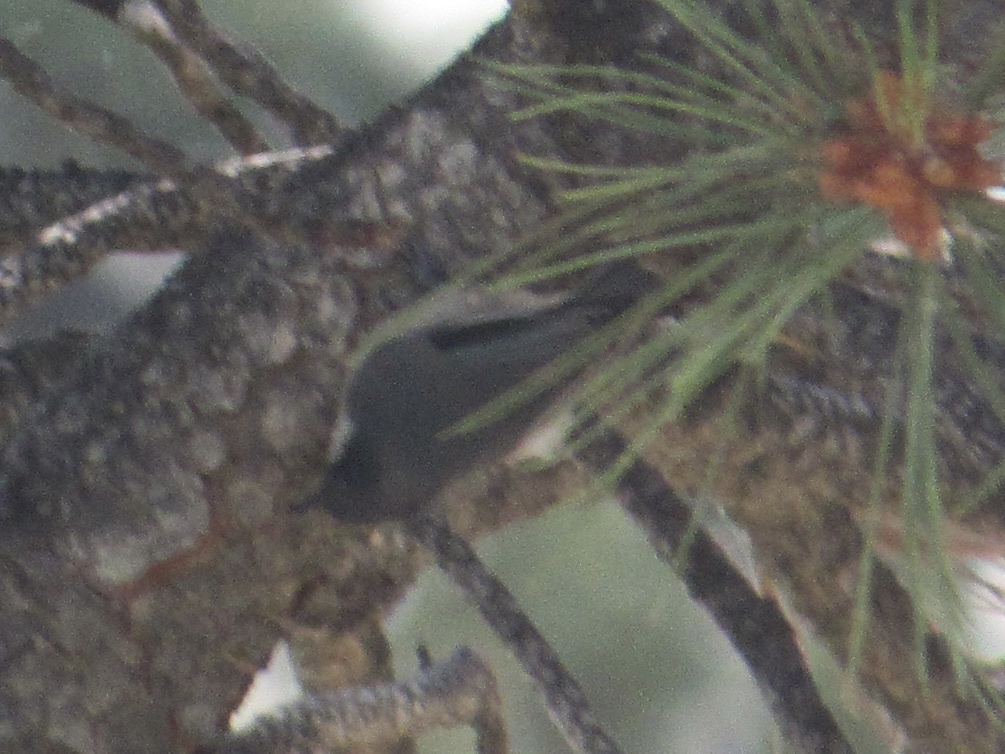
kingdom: Animalia
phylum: Chordata
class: Aves
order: Passeriformes
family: Sittidae
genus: Sitta
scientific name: Sitta pygmaea
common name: Pygmy nuthatch
